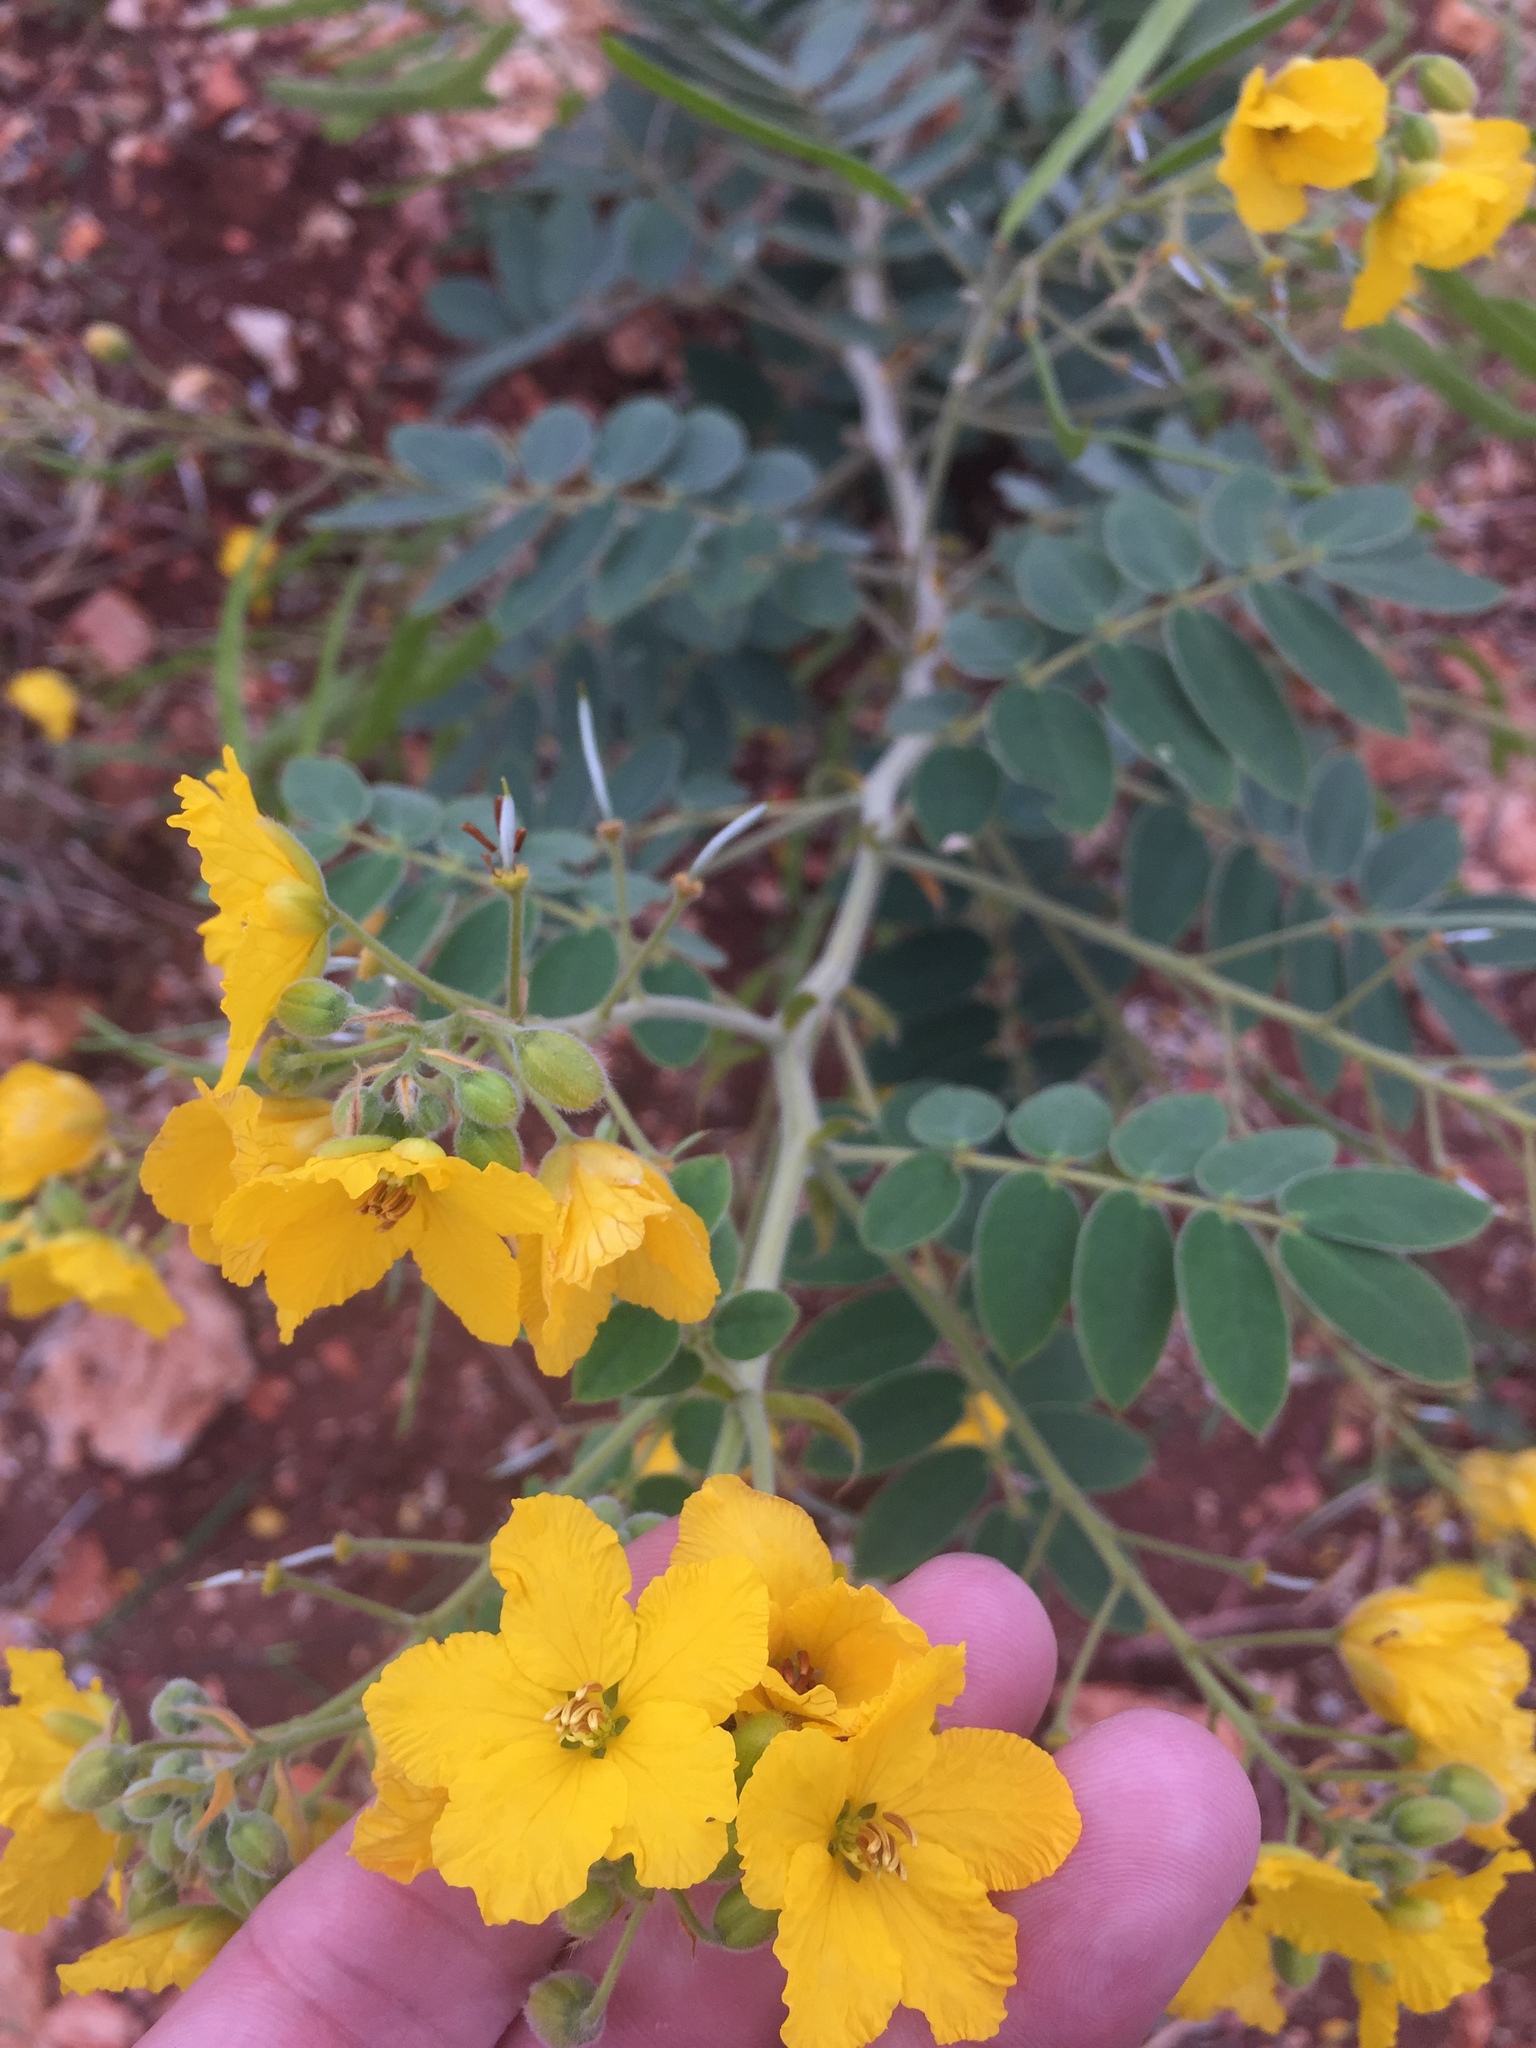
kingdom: Plantae
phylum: Tracheophyta
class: Magnoliopsida
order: Fabales
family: Fabaceae
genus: Senna
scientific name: Senna lindheimeriana
